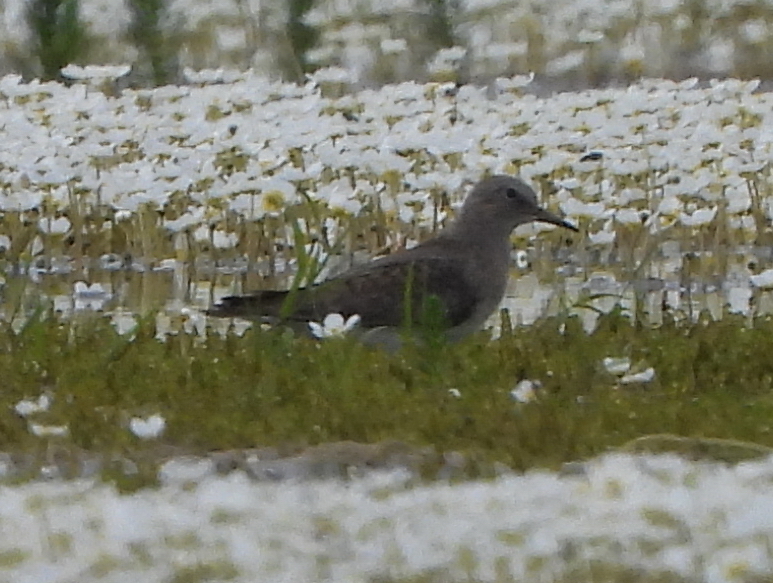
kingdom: Animalia
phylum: Chordata
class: Aves
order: Charadriiformes
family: Scolopacidae
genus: Calidris
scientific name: Calidris temminckii
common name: Temminck's stint
